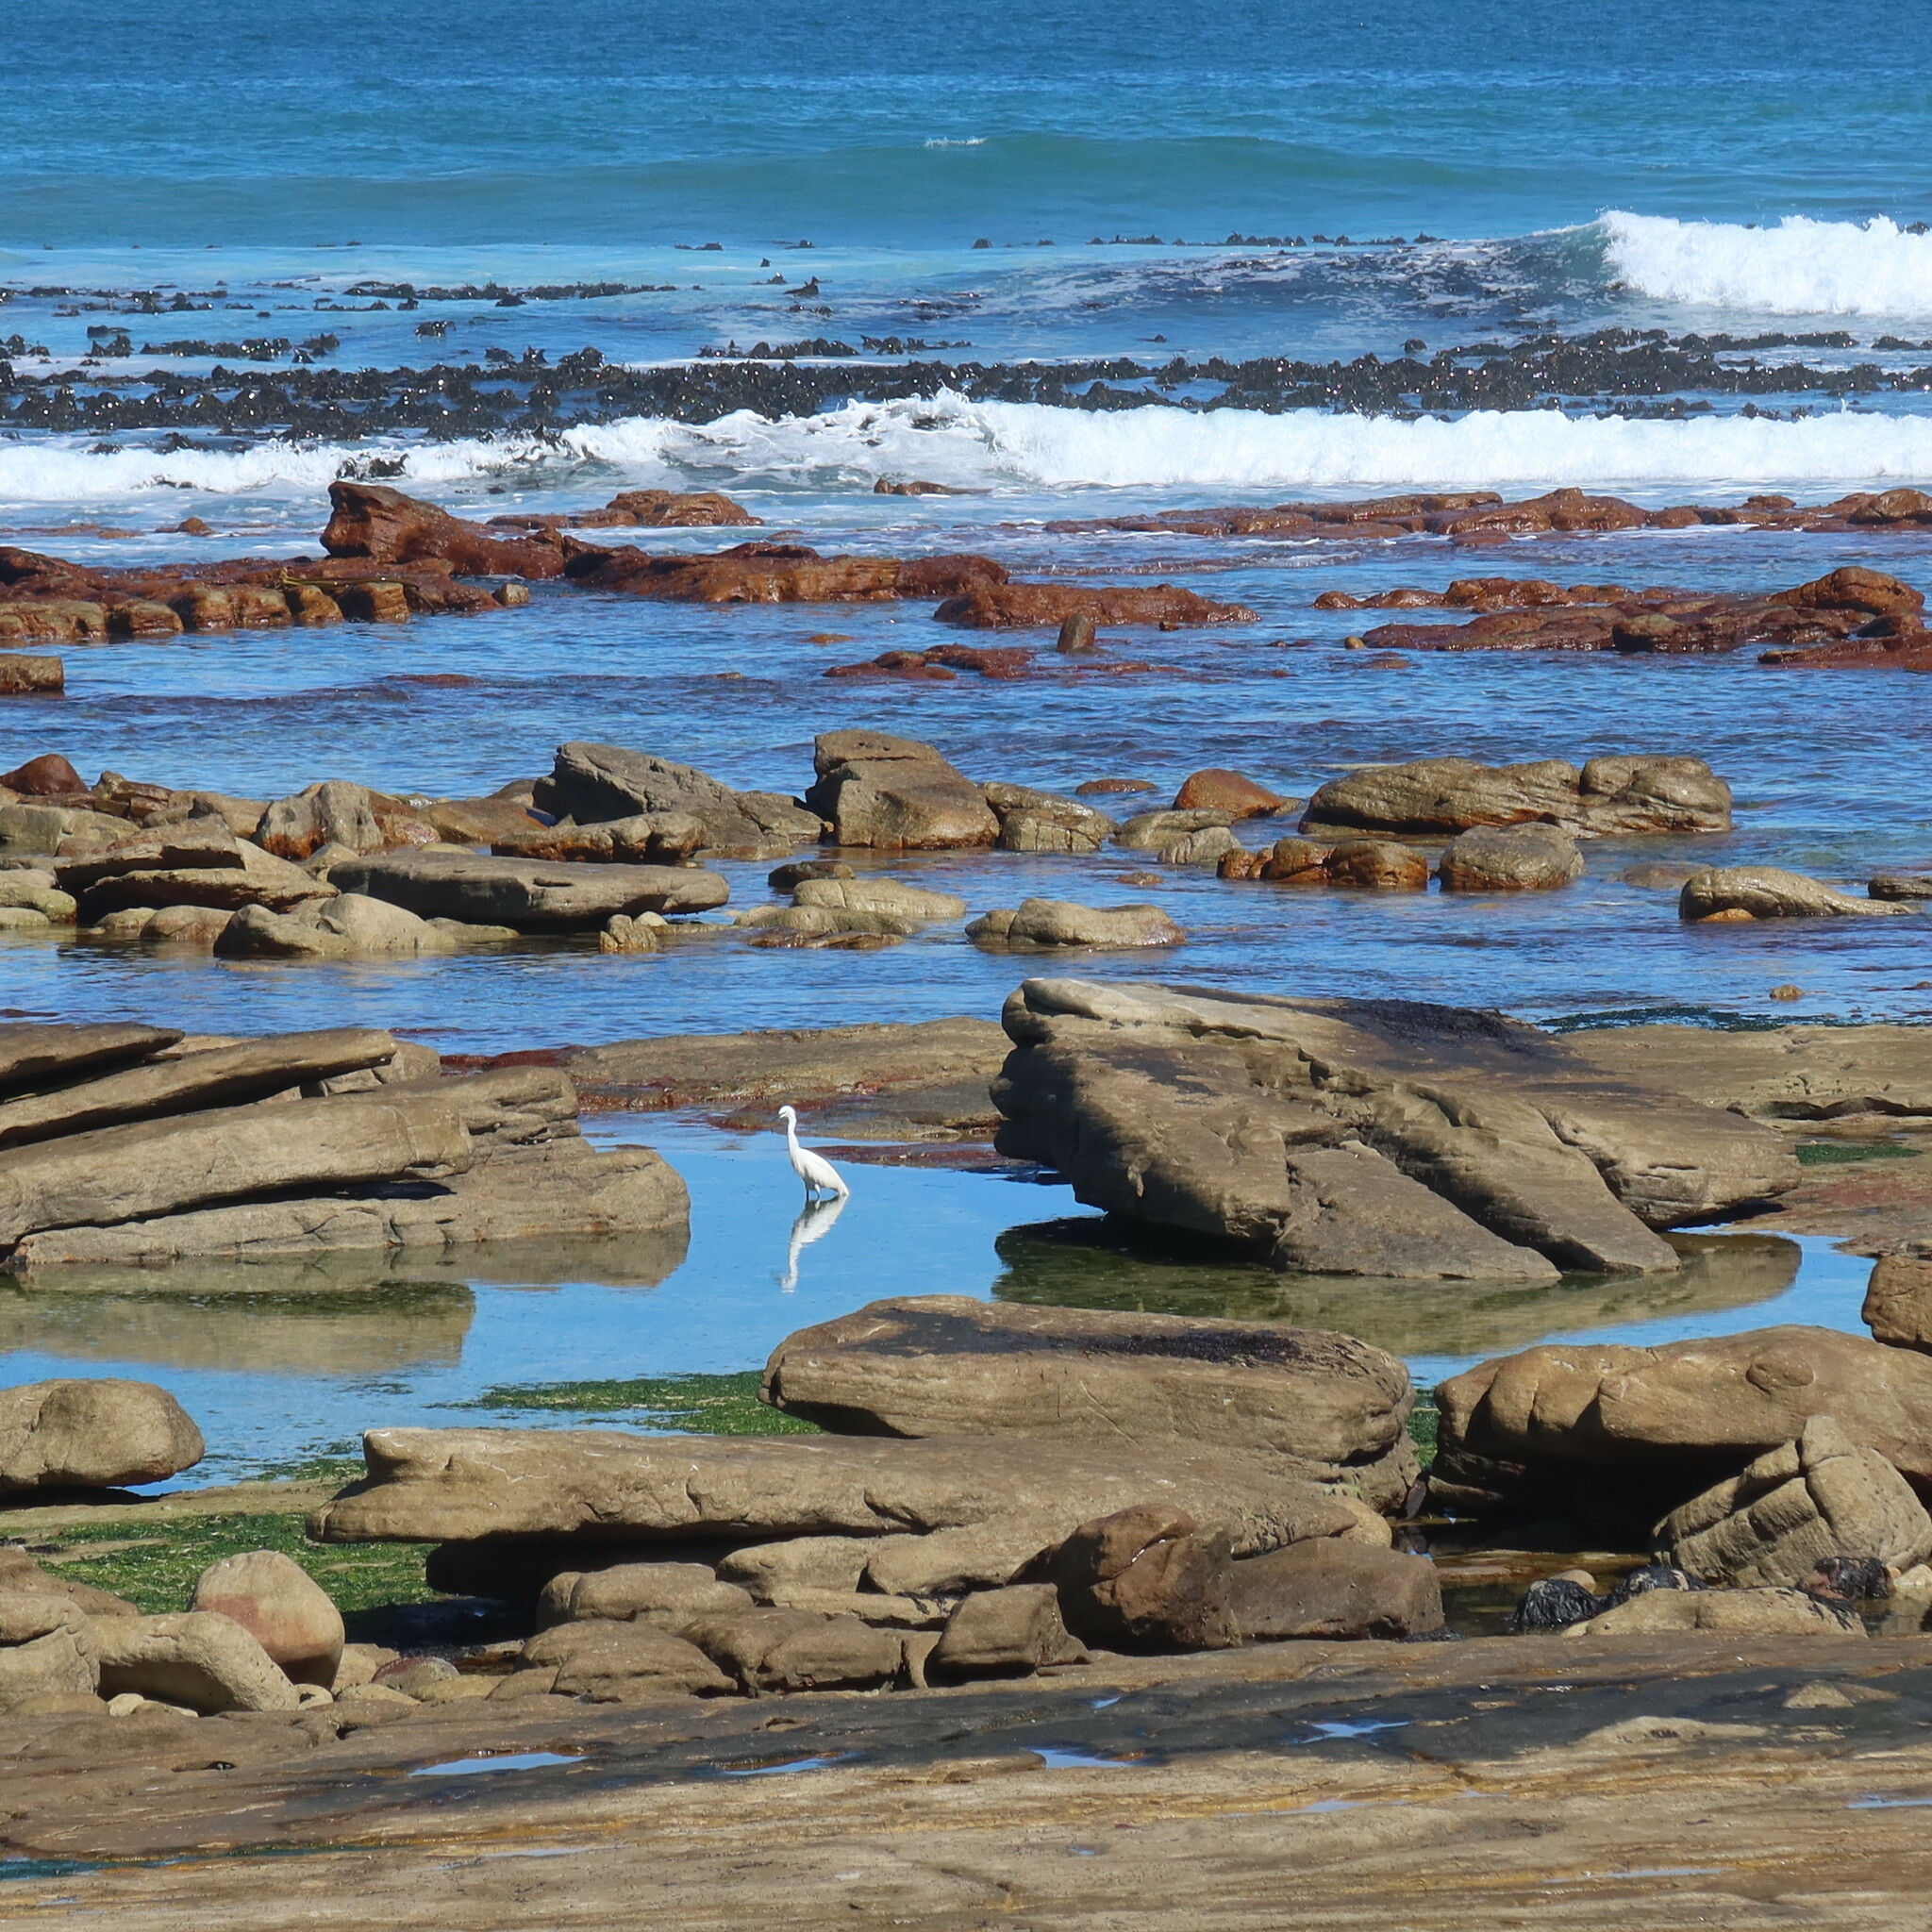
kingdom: Animalia
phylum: Chordata
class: Aves
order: Pelecaniformes
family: Ardeidae
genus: Egretta
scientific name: Egretta garzetta
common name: Little egret
